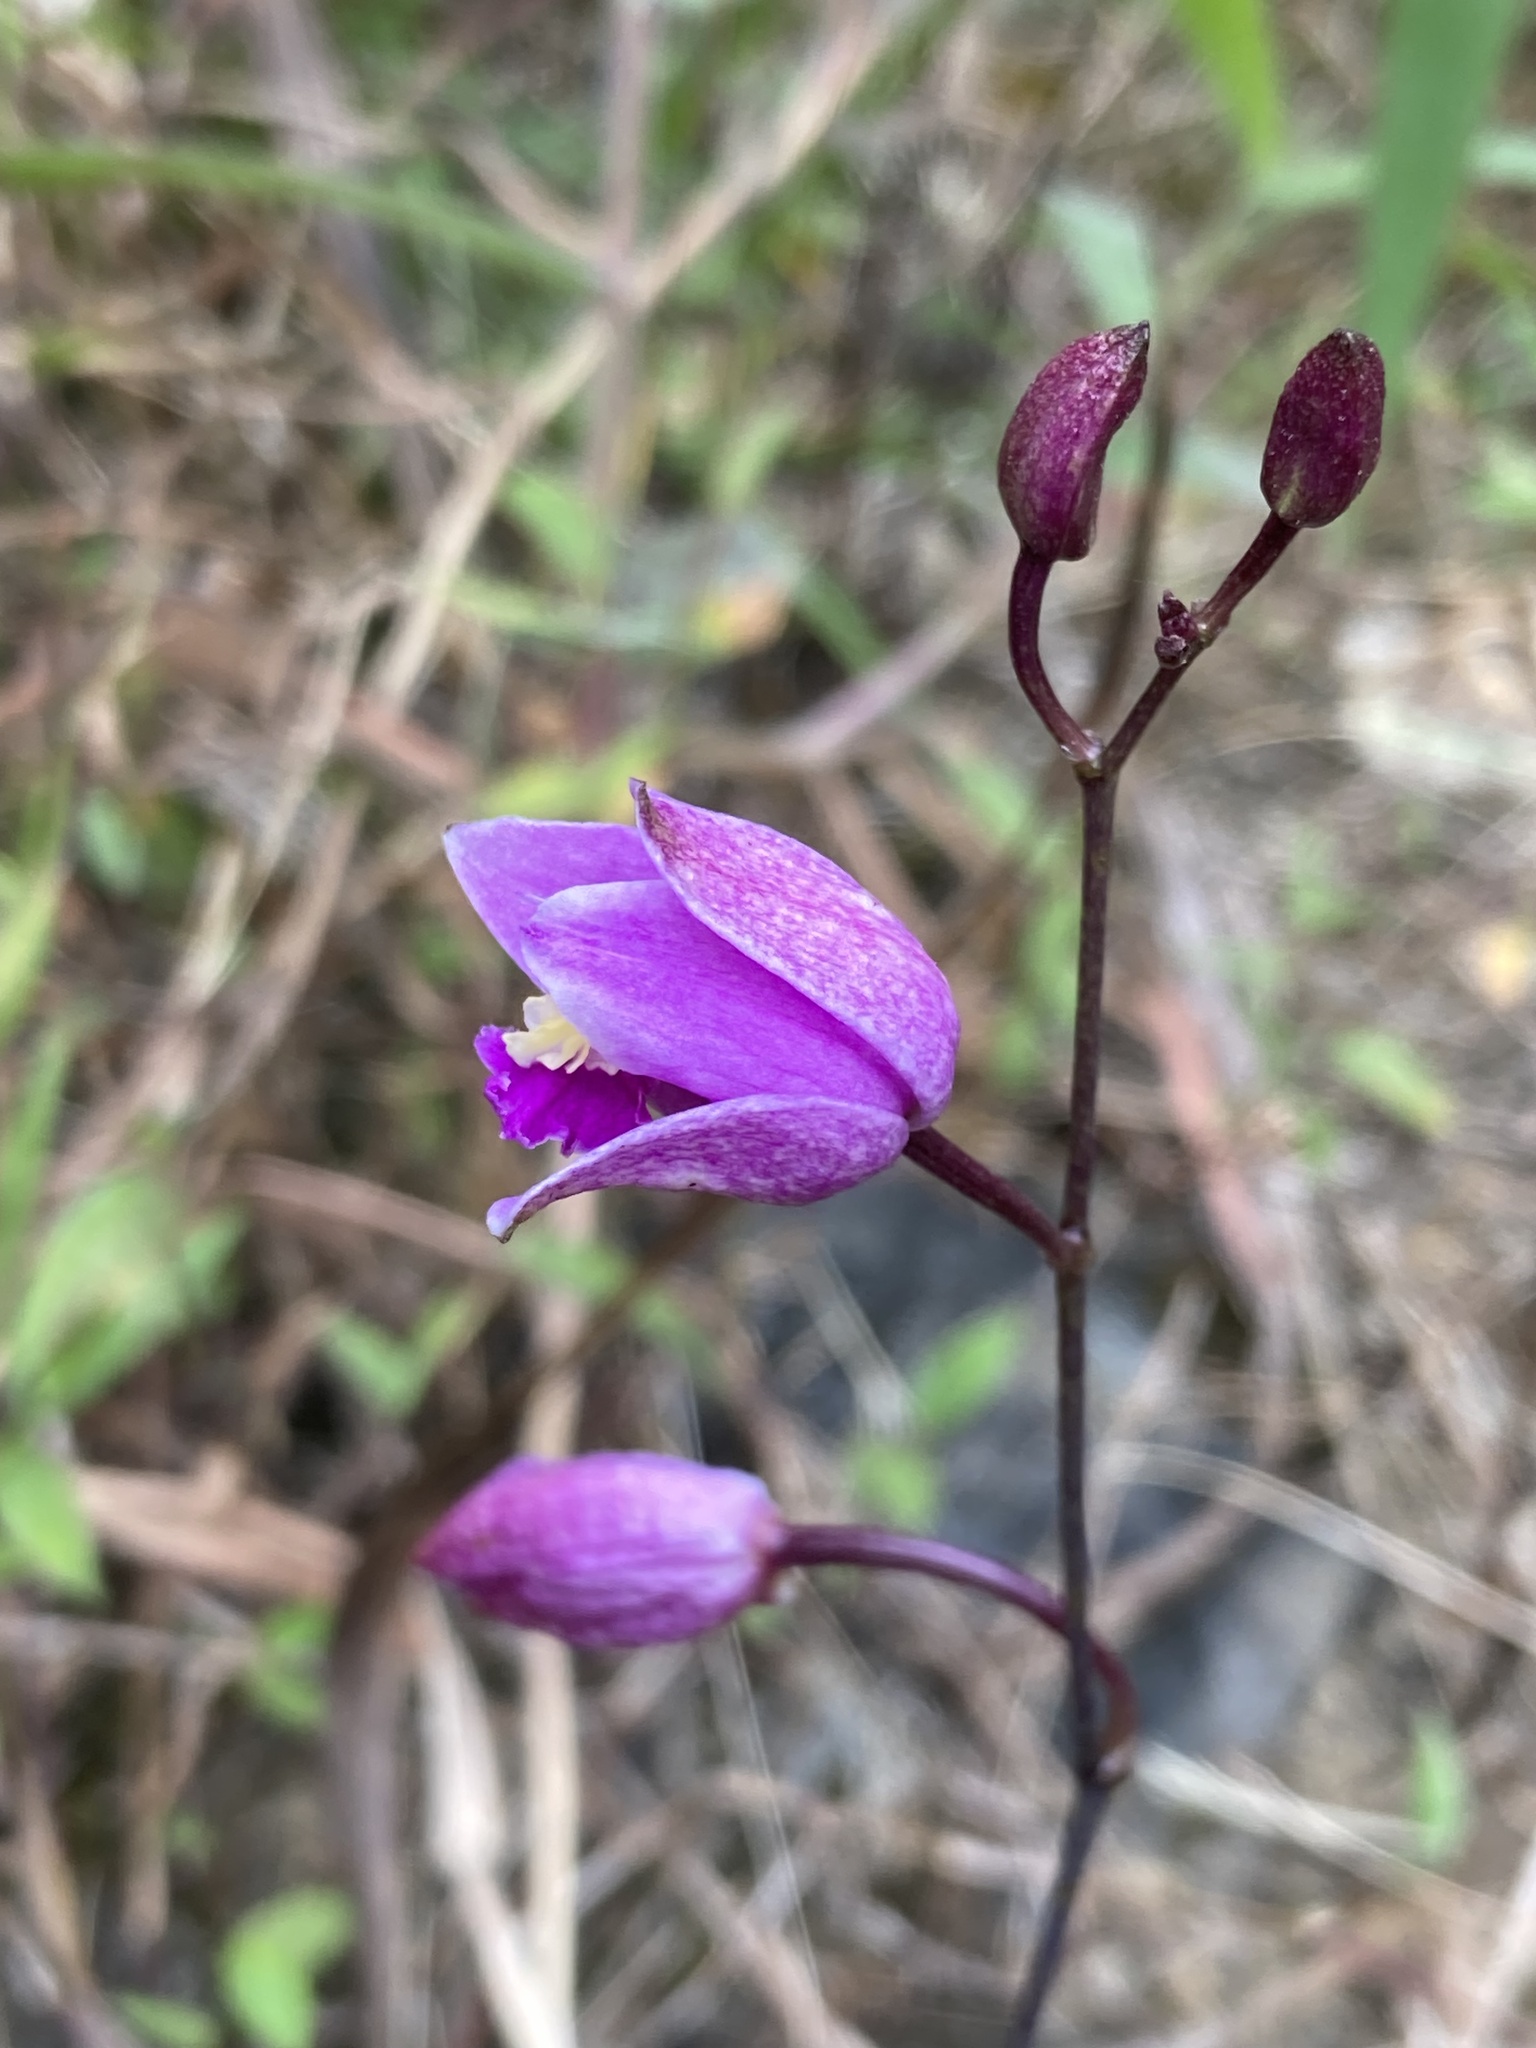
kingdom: Plantae
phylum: Tracheophyta
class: Liliopsida
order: Asparagales
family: Orchidaceae
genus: Bletia
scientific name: Bletia purpurea
